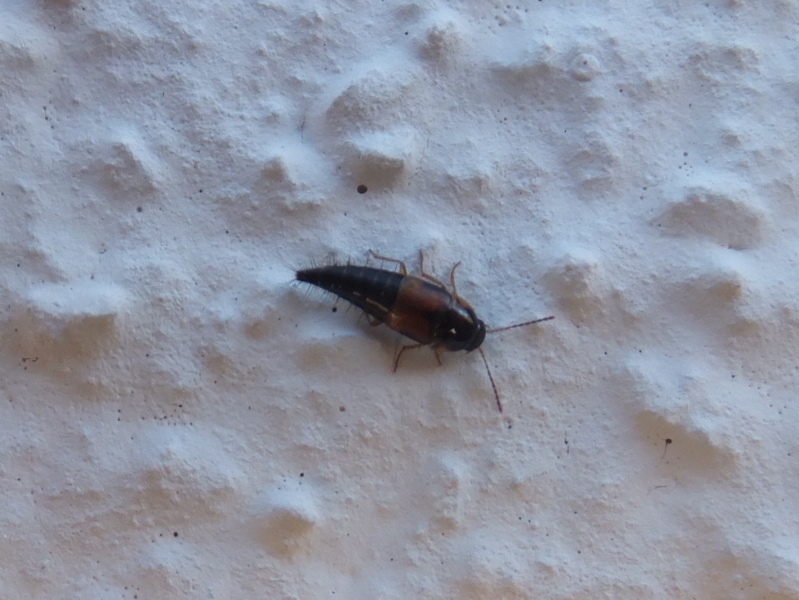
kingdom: Animalia
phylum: Arthropoda
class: Insecta
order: Coleoptera
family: Staphylinidae
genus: Tachyporus
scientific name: Tachyporus hypnorum
